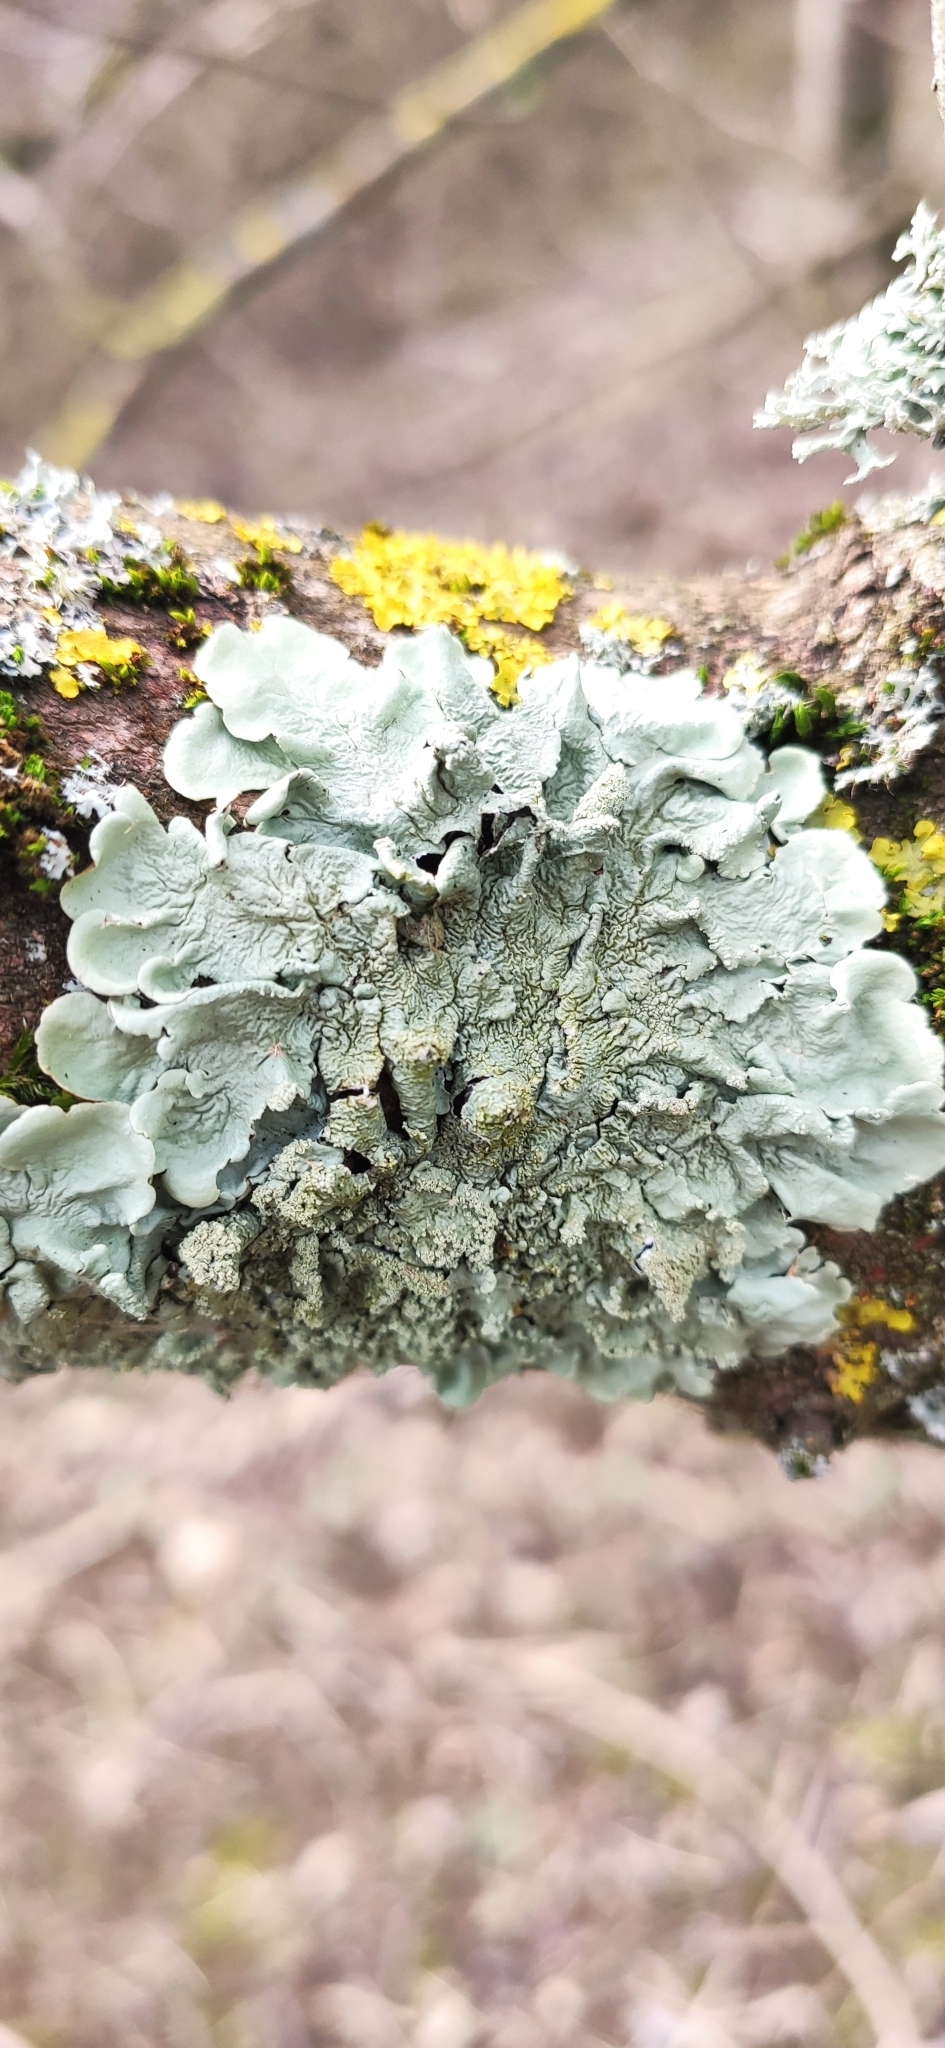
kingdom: Fungi
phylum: Ascomycota
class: Lecanoromycetes
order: Lecanorales
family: Parmeliaceae
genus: Flavoparmelia
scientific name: Flavoparmelia caperata
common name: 40-mile per hour lichen
